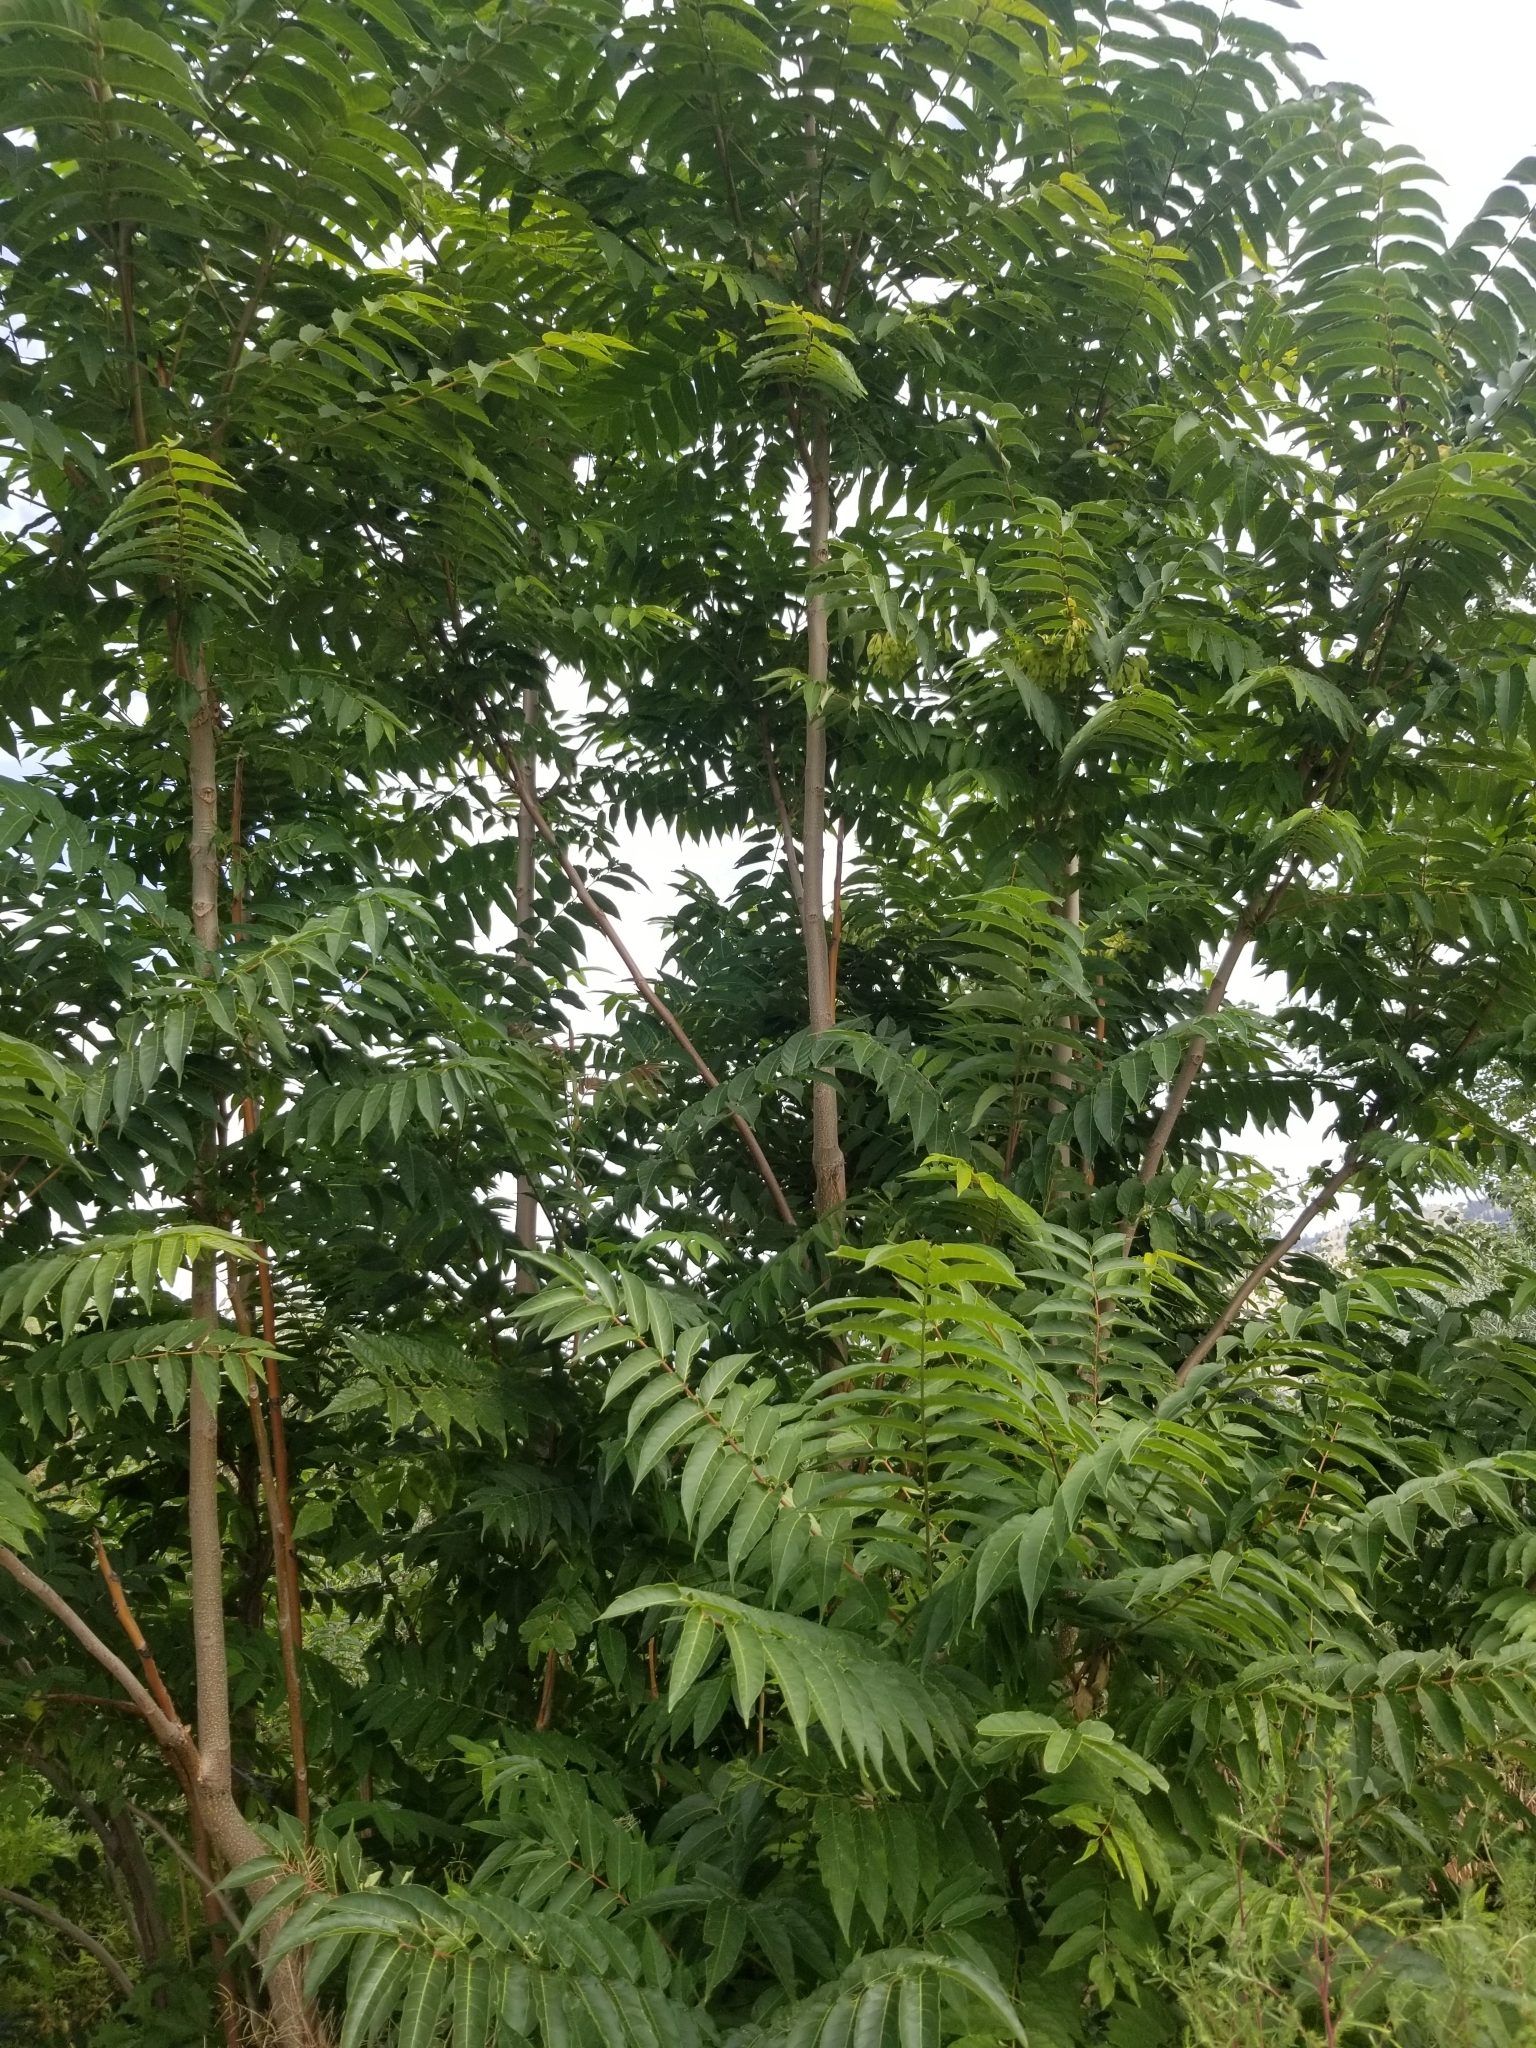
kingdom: Plantae
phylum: Tracheophyta
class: Magnoliopsida
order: Sapindales
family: Simaroubaceae
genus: Ailanthus
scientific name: Ailanthus altissima
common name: Tree-of-heaven
